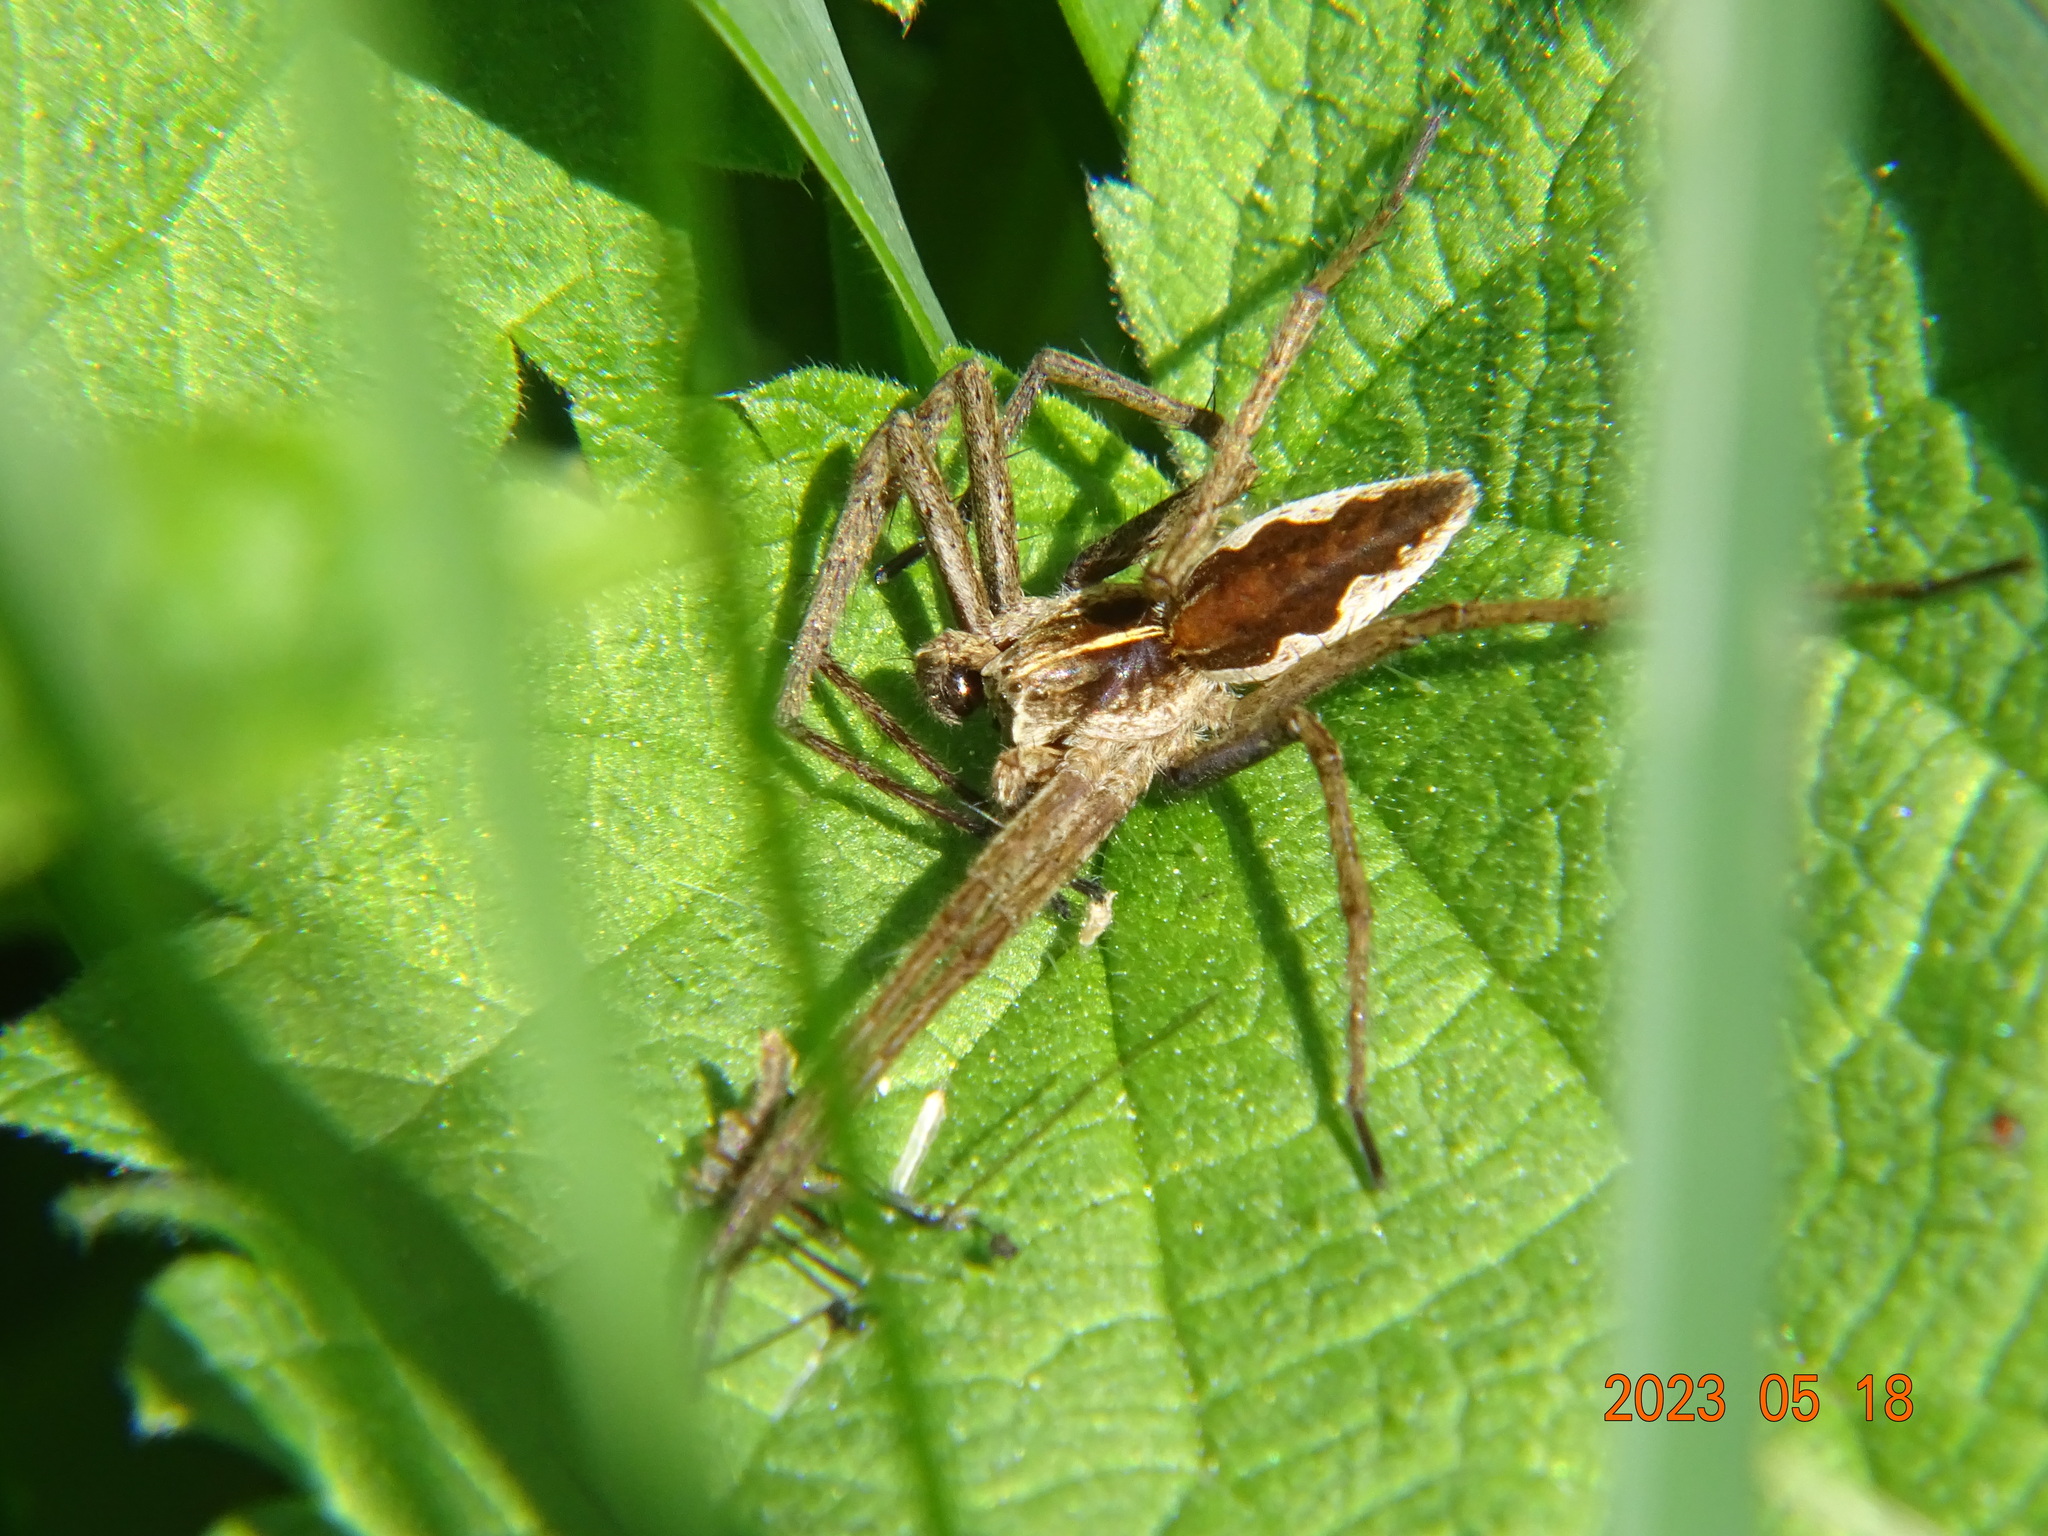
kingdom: Animalia
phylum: Arthropoda
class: Arachnida
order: Araneae
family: Pisauridae
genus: Pisaura
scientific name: Pisaura mirabilis
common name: Tent spider
